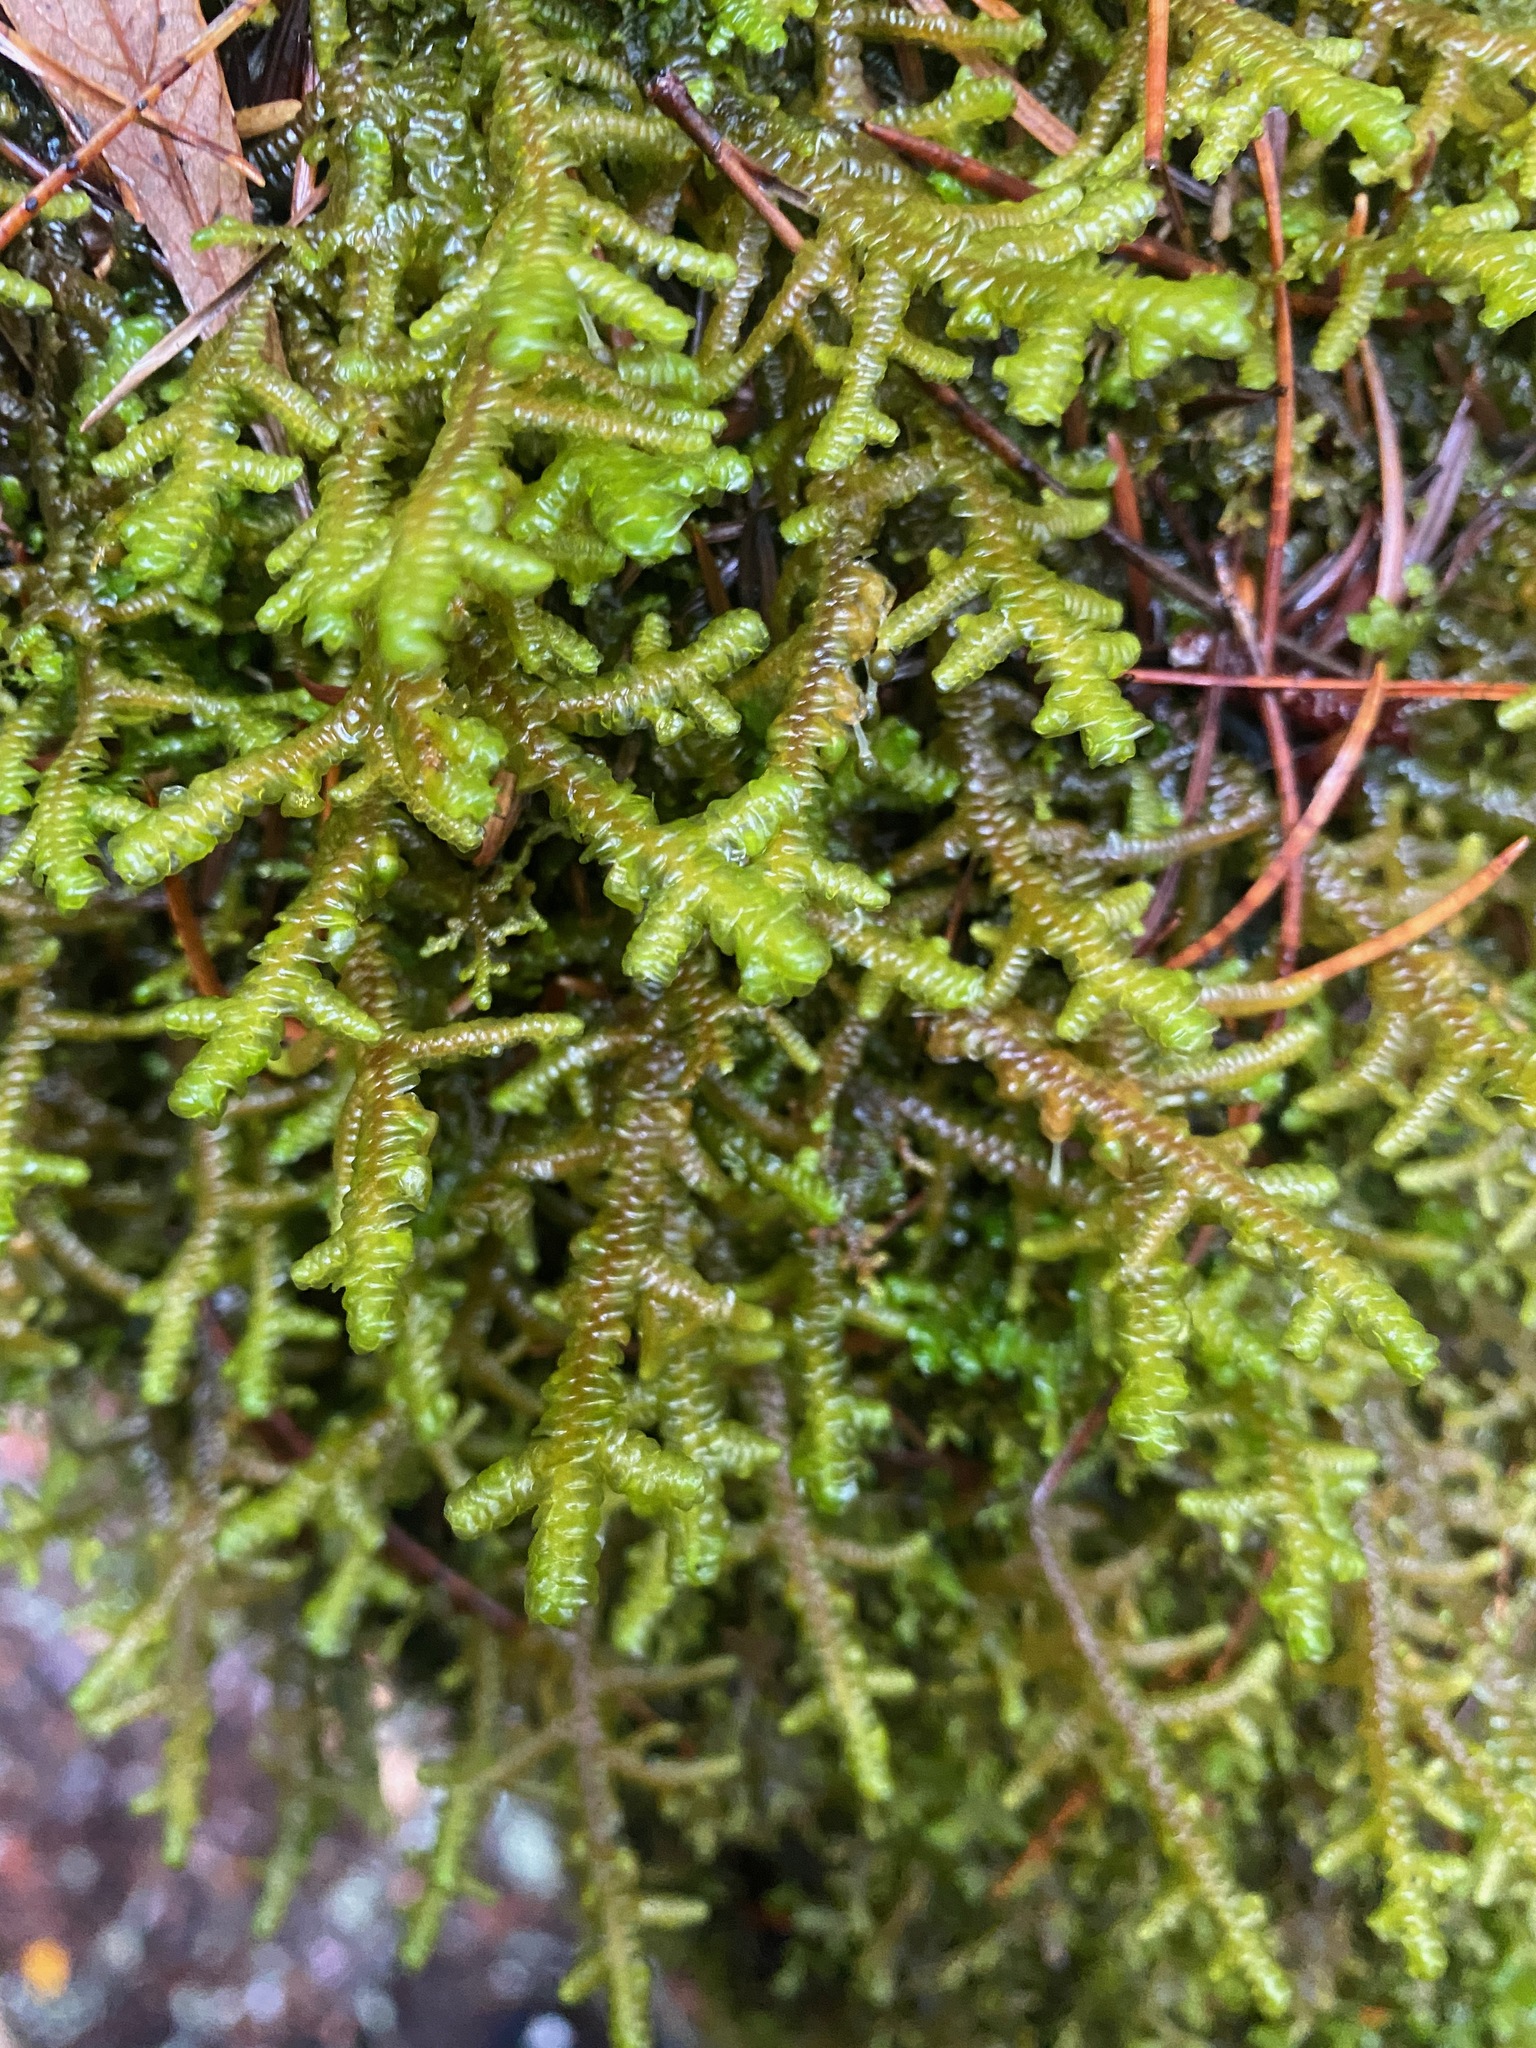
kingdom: Plantae
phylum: Marchantiophyta
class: Jungermanniopsida
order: Porellales
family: Porellaceae
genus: Porella
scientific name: Porella navicularis
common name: Tree ruffle liverwort
